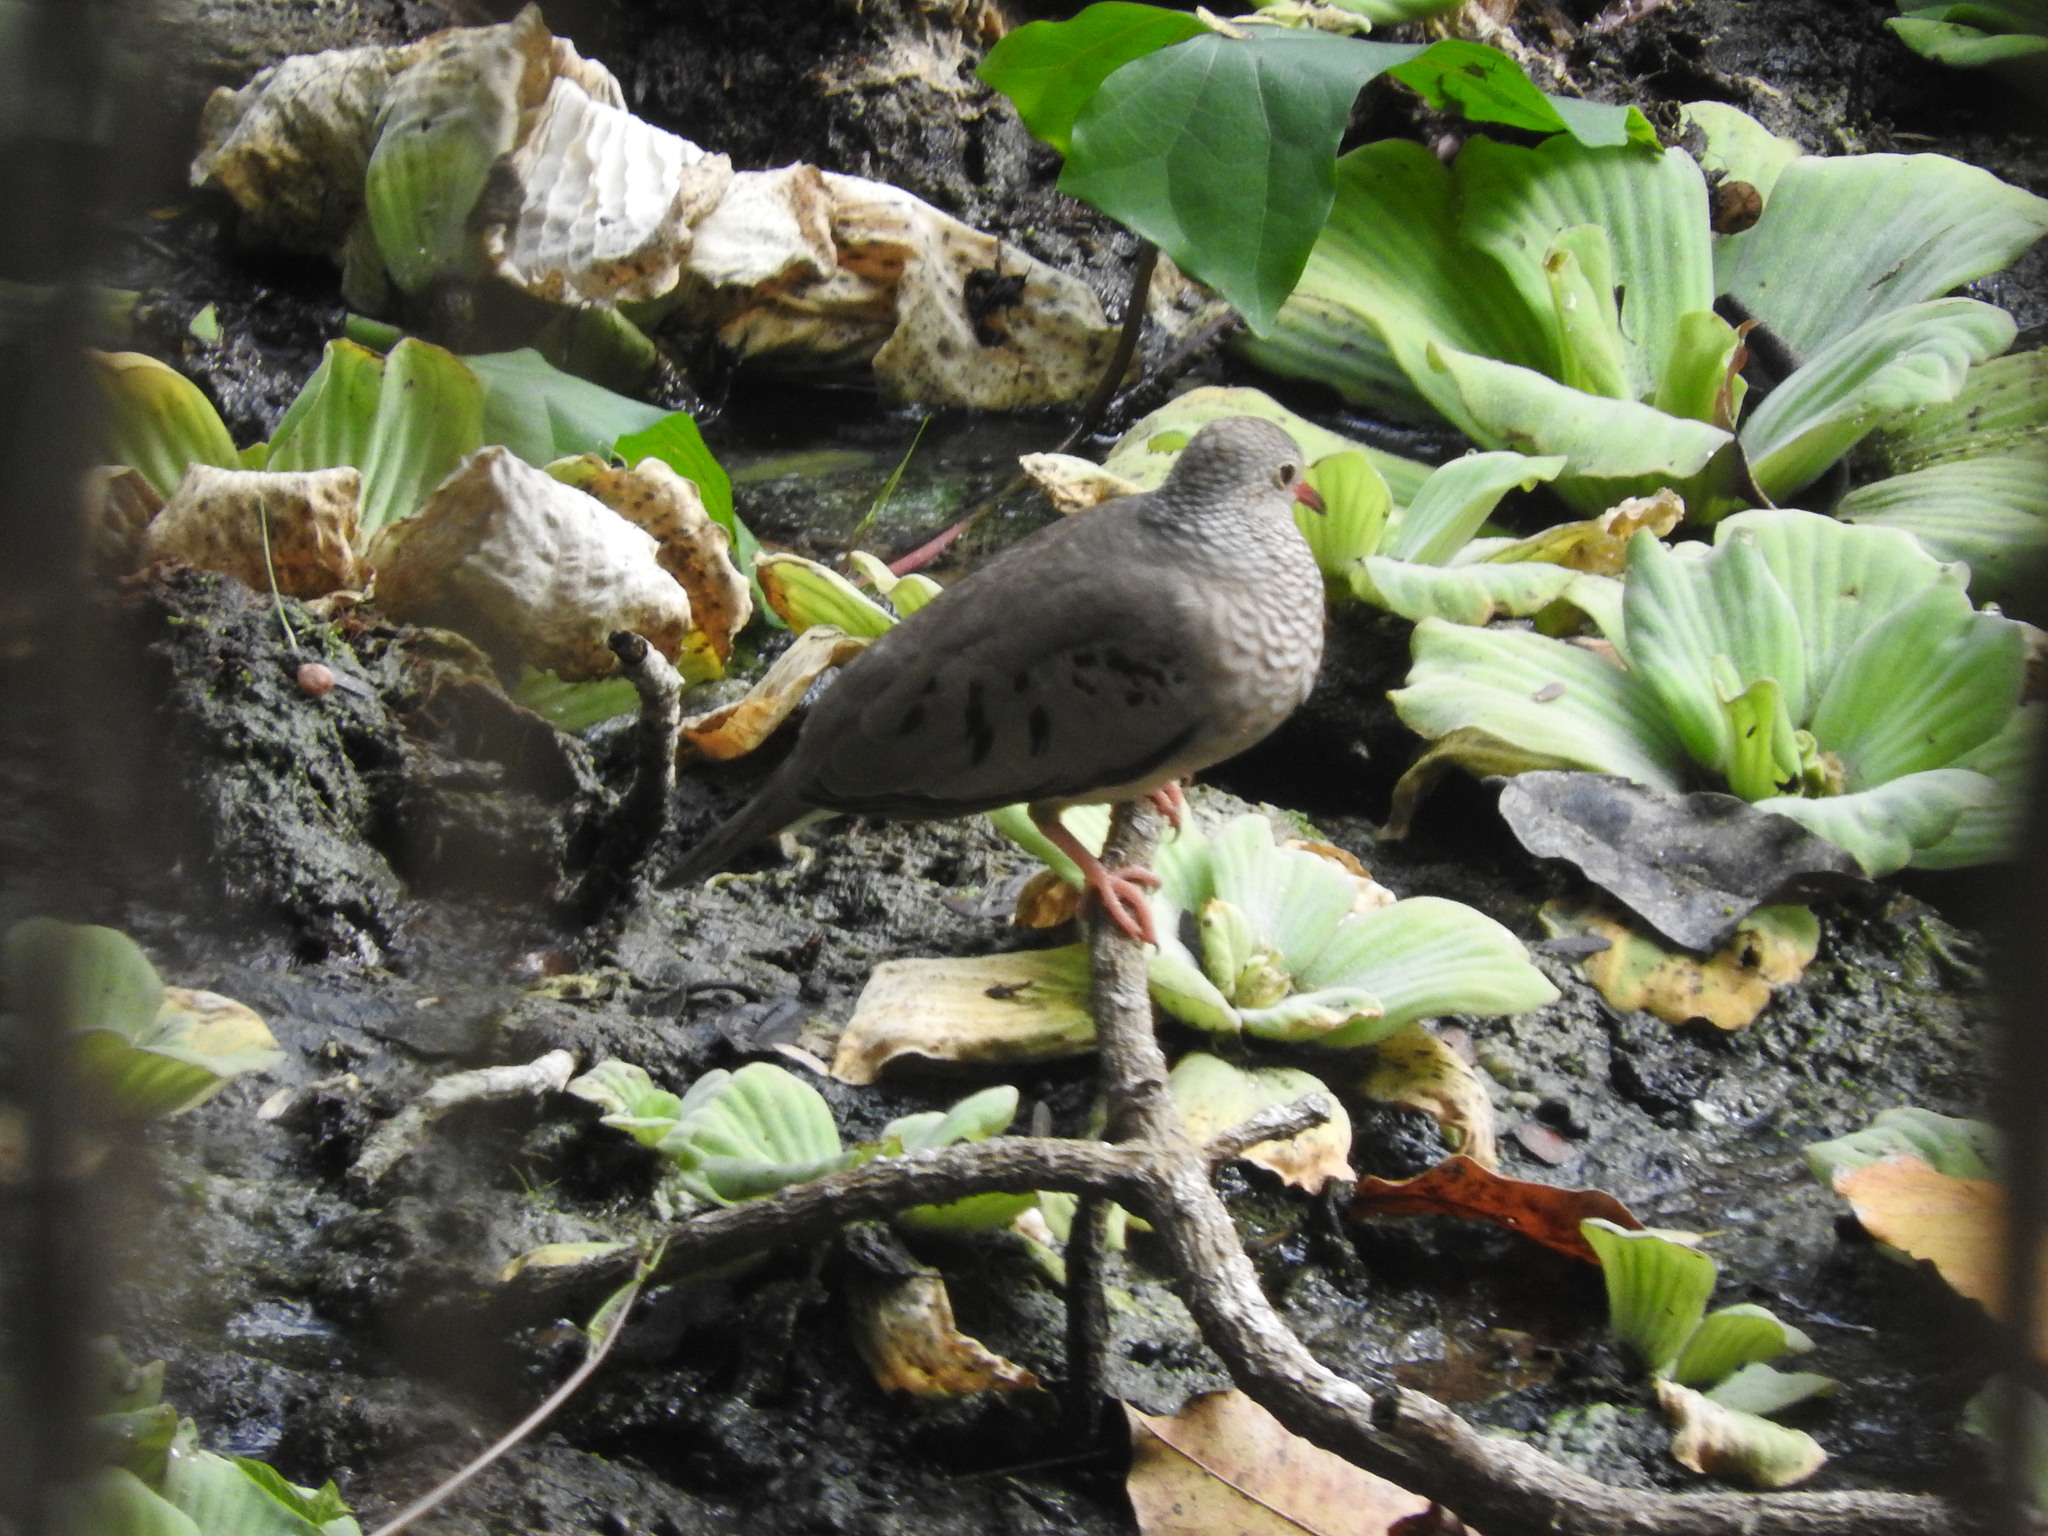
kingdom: Animalia
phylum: Chordata
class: Aves
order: Columbiformes
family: Columbidae
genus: Columbina
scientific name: Columbina passerina
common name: Common ground-dove
